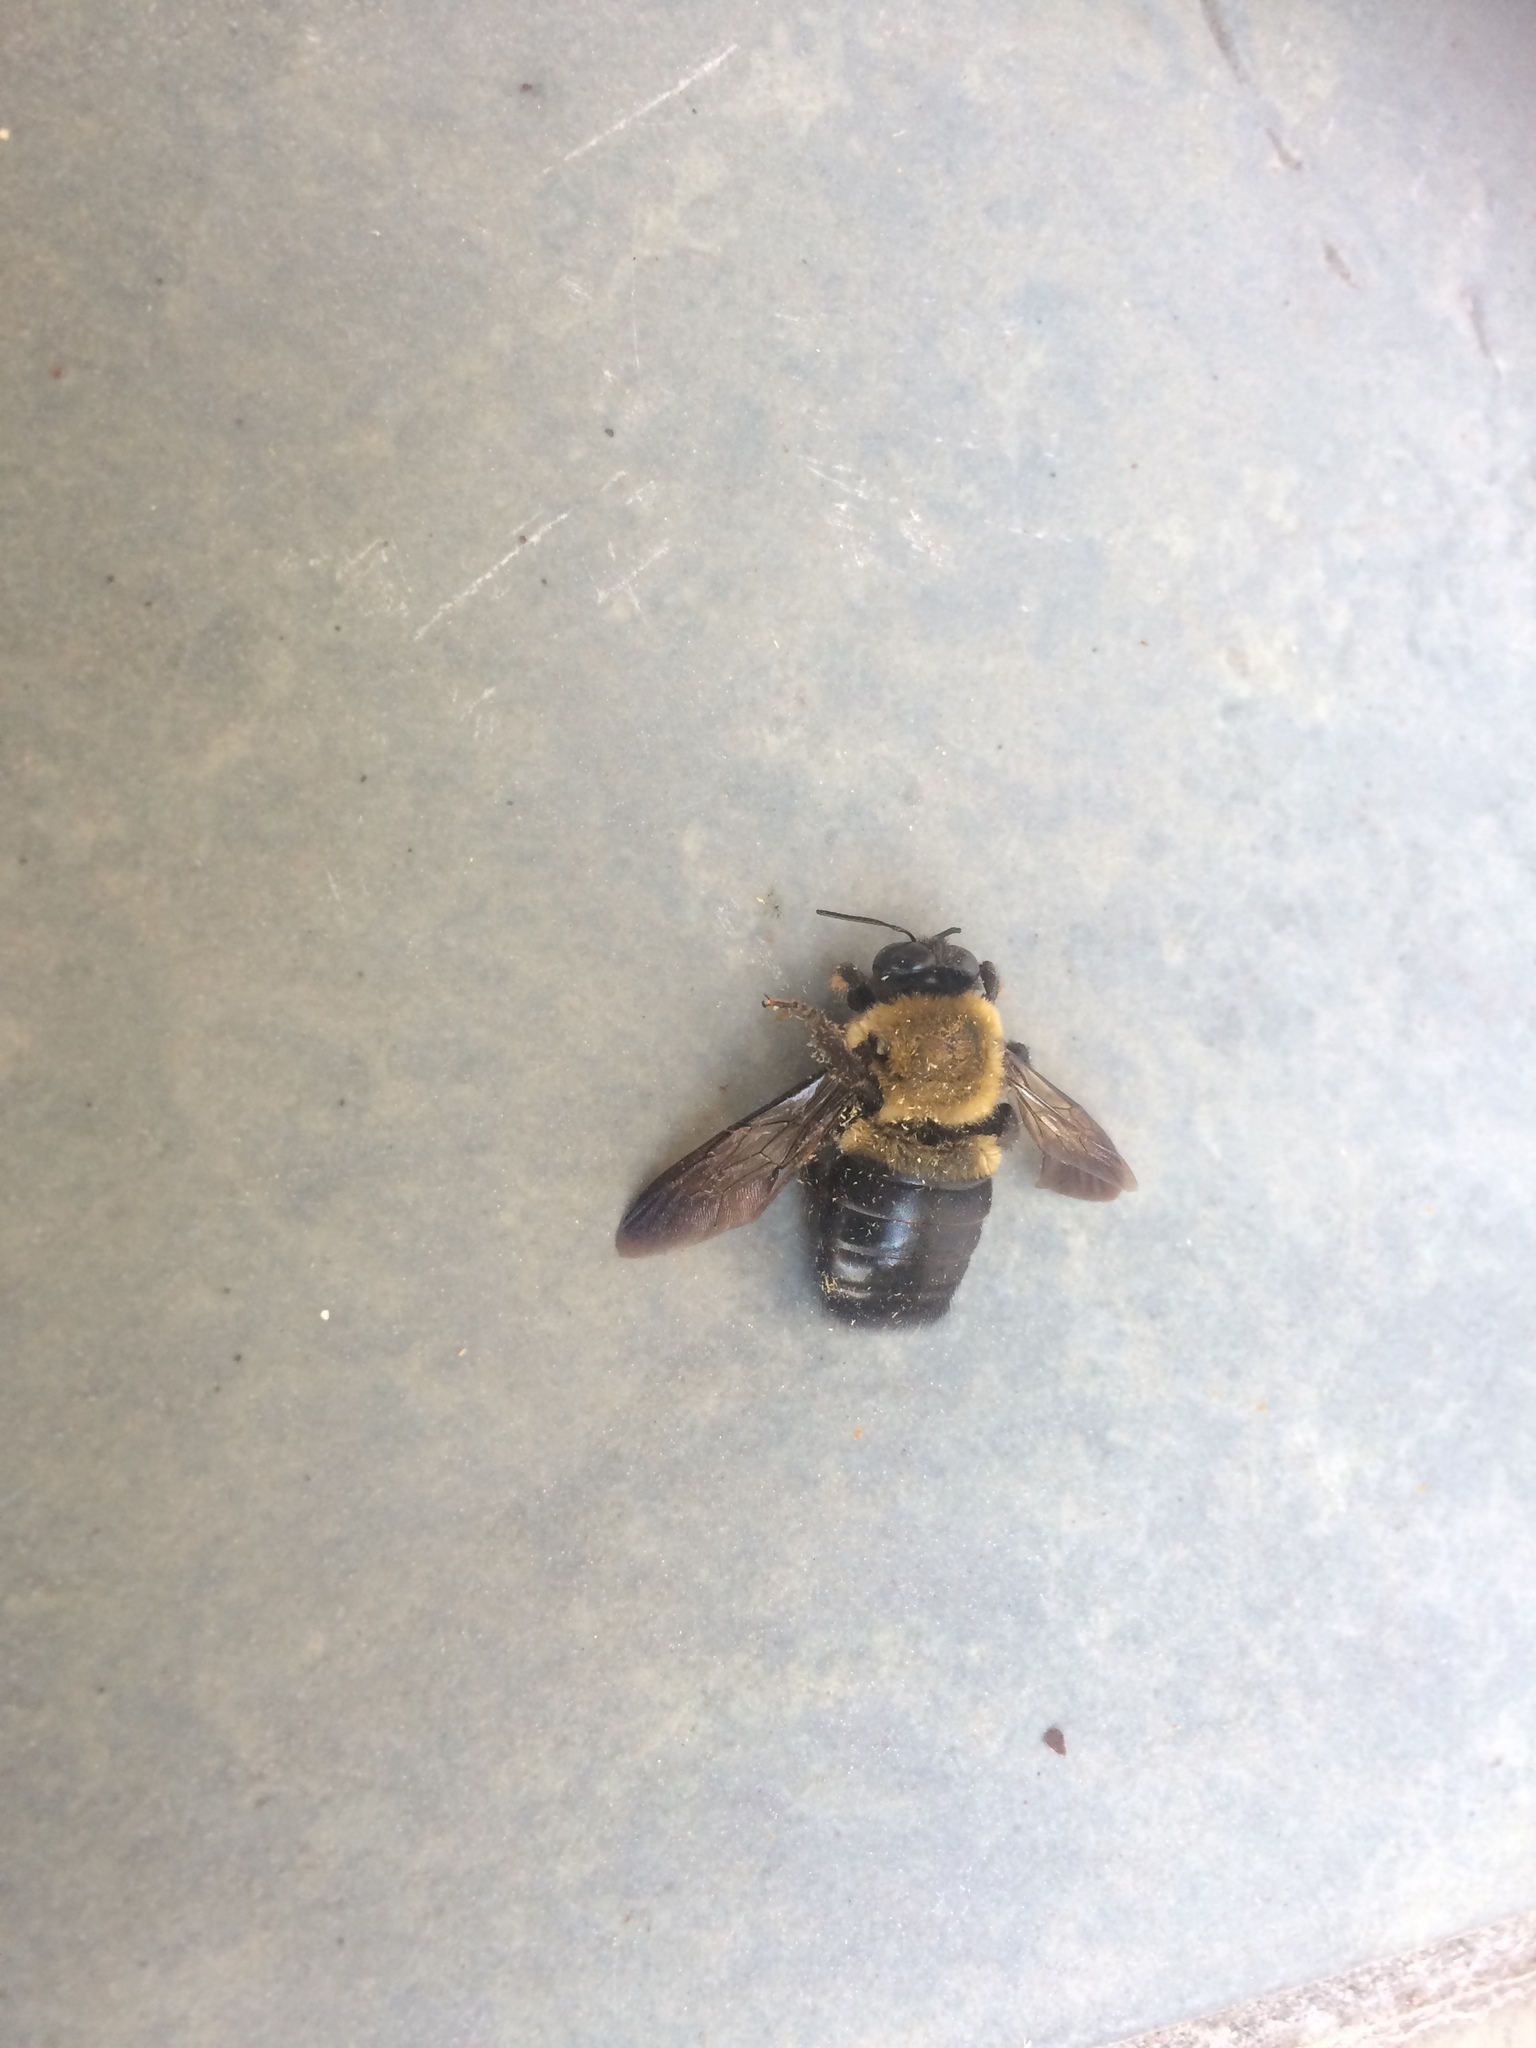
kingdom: Animalia
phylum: Arthropoda
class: Insecta
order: Hymenoptera
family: Apidae
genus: Xylocopa
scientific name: Xylocopa virginica
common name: Carpenter bee
